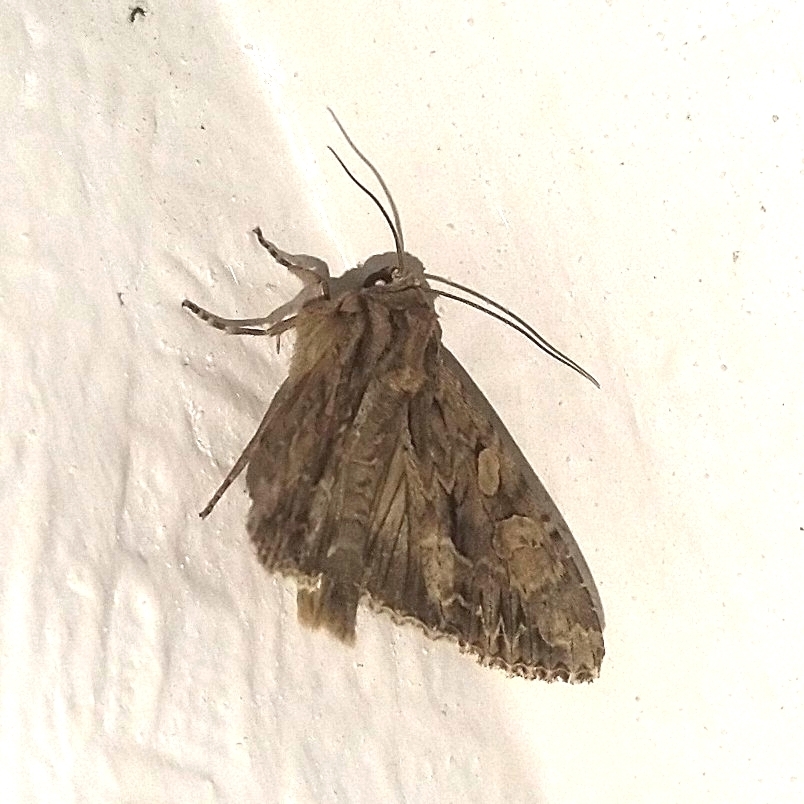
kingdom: Animalia
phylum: Arthropoda
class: Insecta
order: Lepidoptera
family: Noctuidae
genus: Apamea
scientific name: Apamea monoglypha
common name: Dark arches
